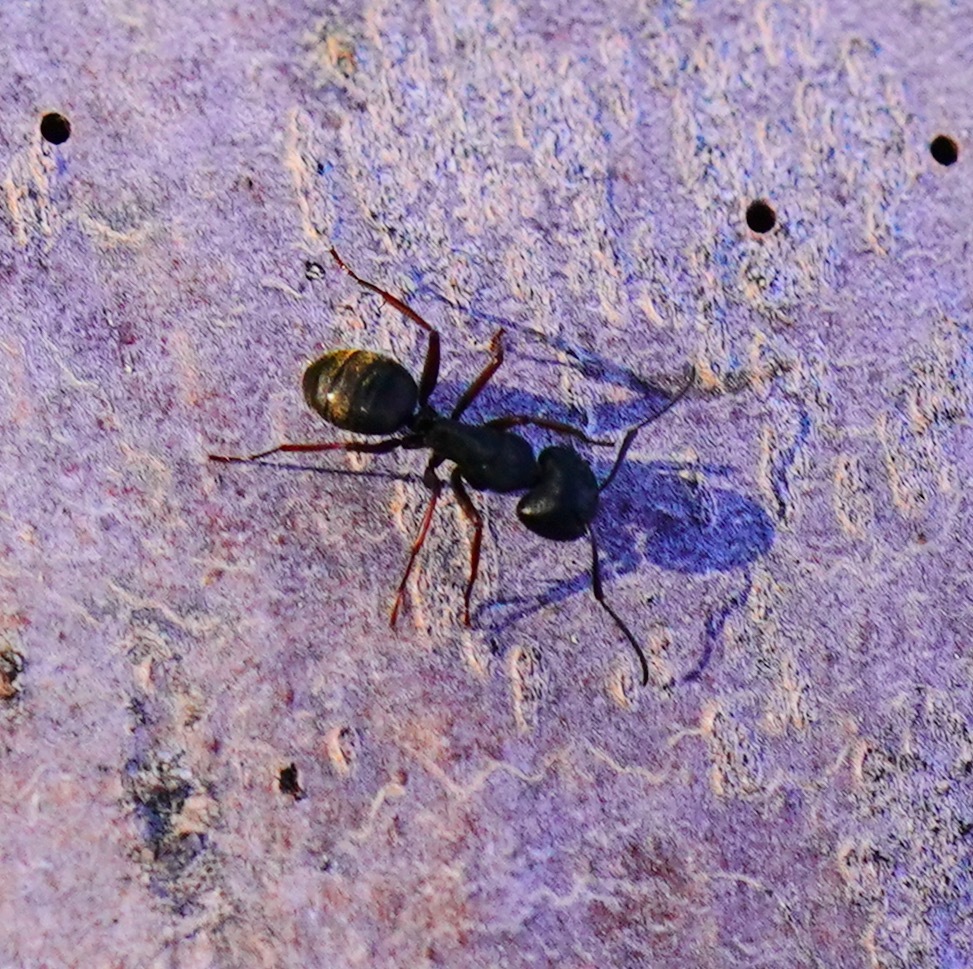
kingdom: Animalia
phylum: Arthropoda
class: Insecta
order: Hymenoptera
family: Formicidae
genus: Camponotus
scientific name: Camponotus modoc
